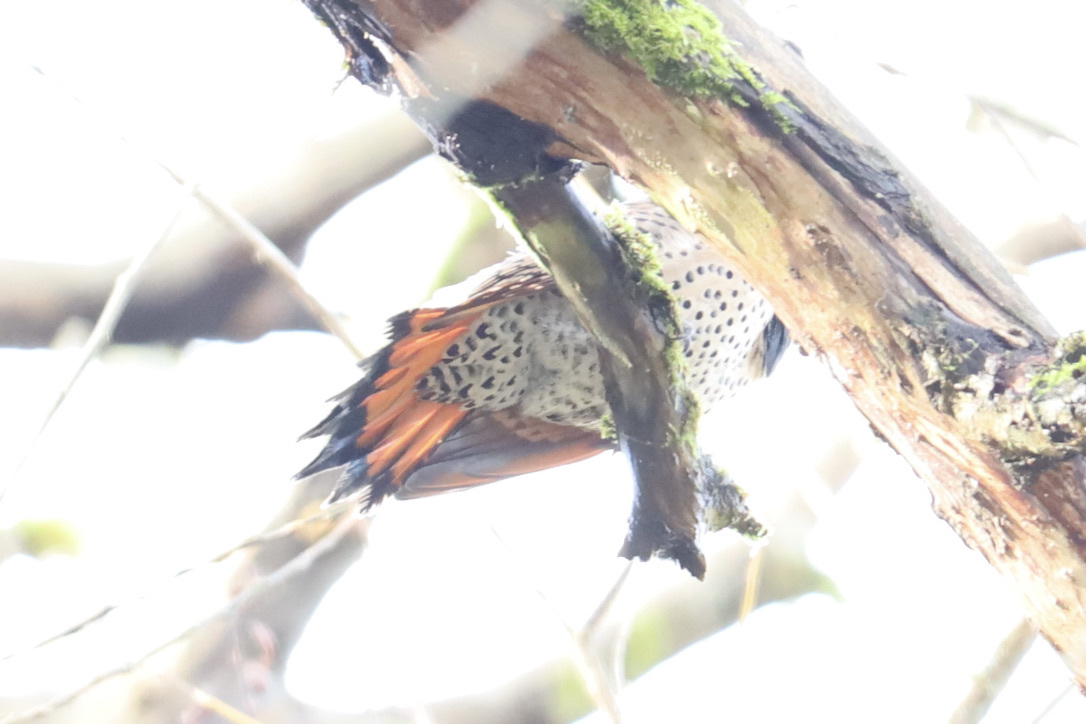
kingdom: Animalia
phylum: Chordata
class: Aves
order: Piciformes
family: Picidae
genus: Colaptes
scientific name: Colaptes auratus
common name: Northern flicker
